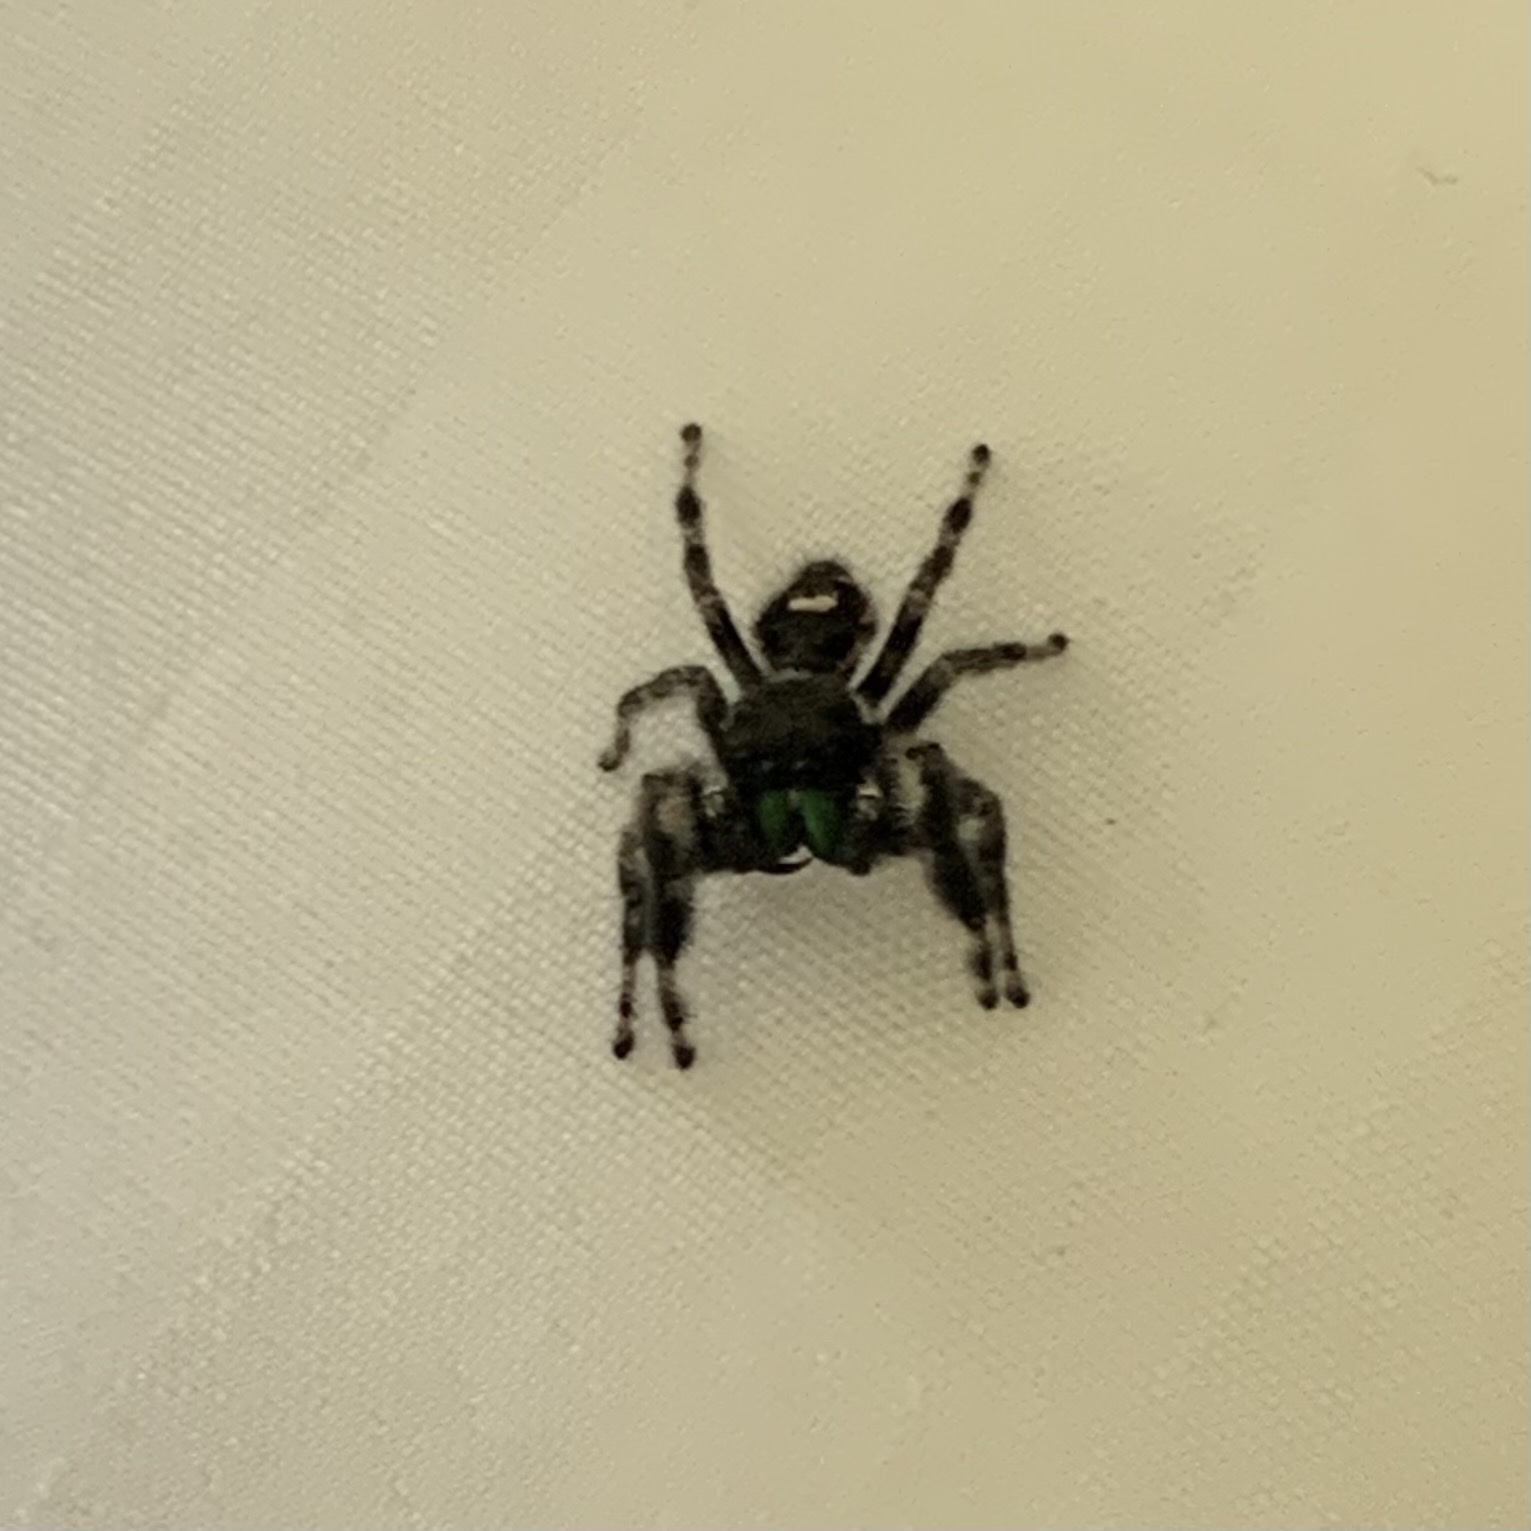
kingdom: Animalia
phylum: Arthropoda
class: Arachnida
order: Araneae
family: Salticidae
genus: Phidippus
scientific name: Phidippus audax
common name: Bold jumper
